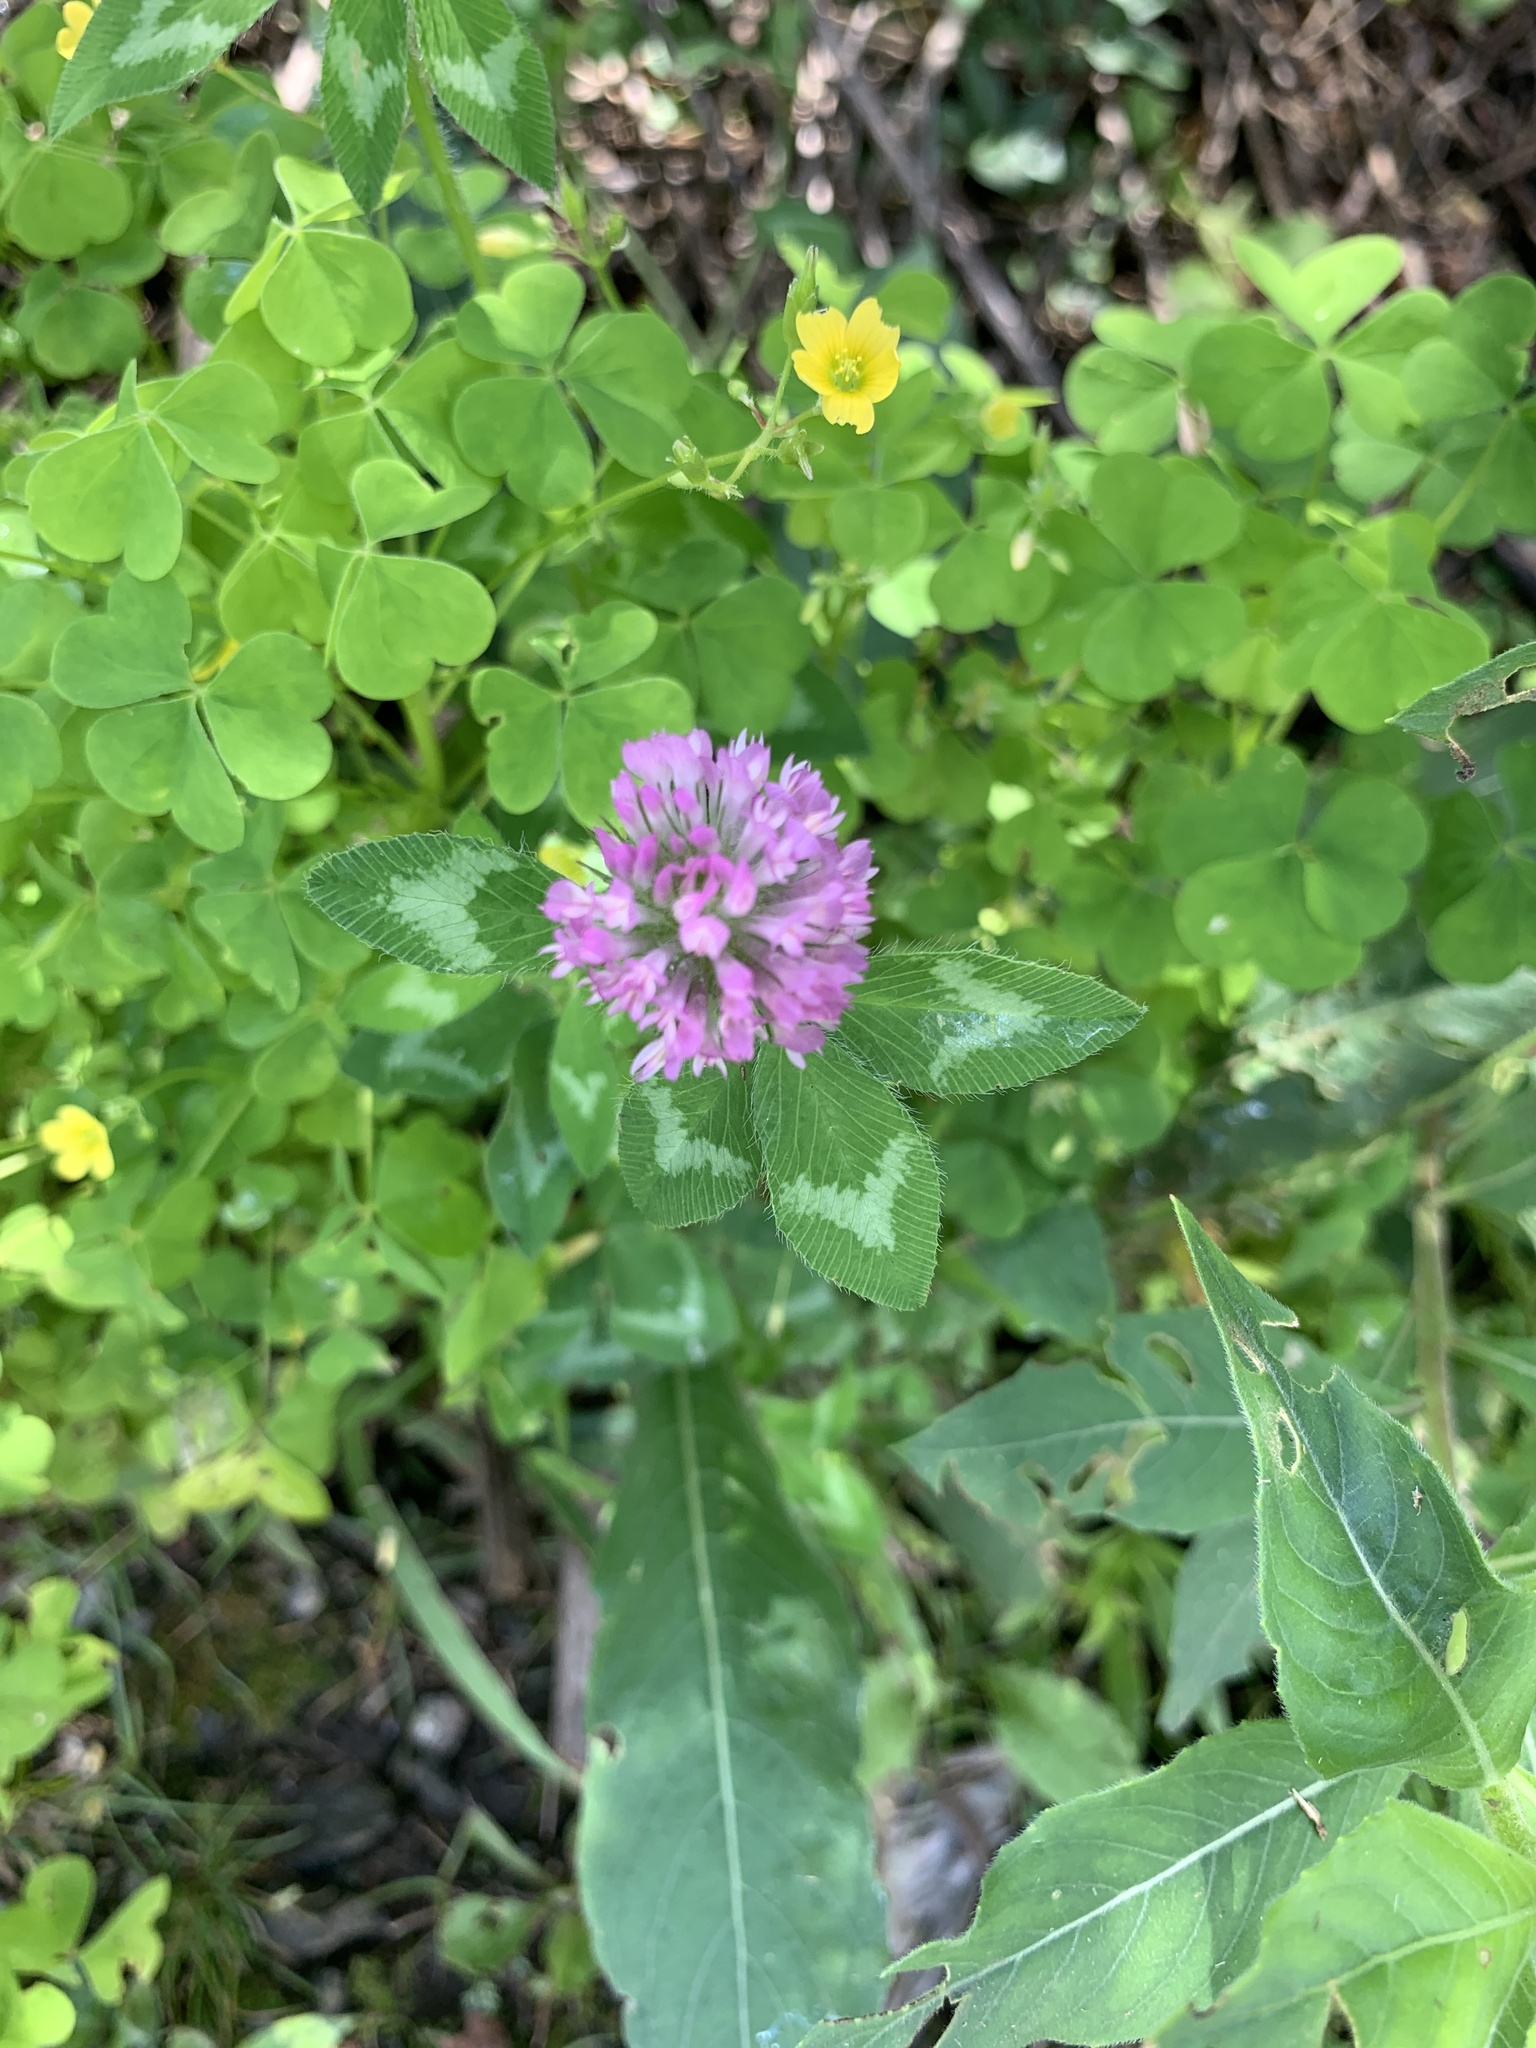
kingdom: Plantae
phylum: Tracheophyta
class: Magnoliopsida
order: Fabales
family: Fabaceae
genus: Trifolium
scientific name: Trifolium pratense
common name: Red clover
